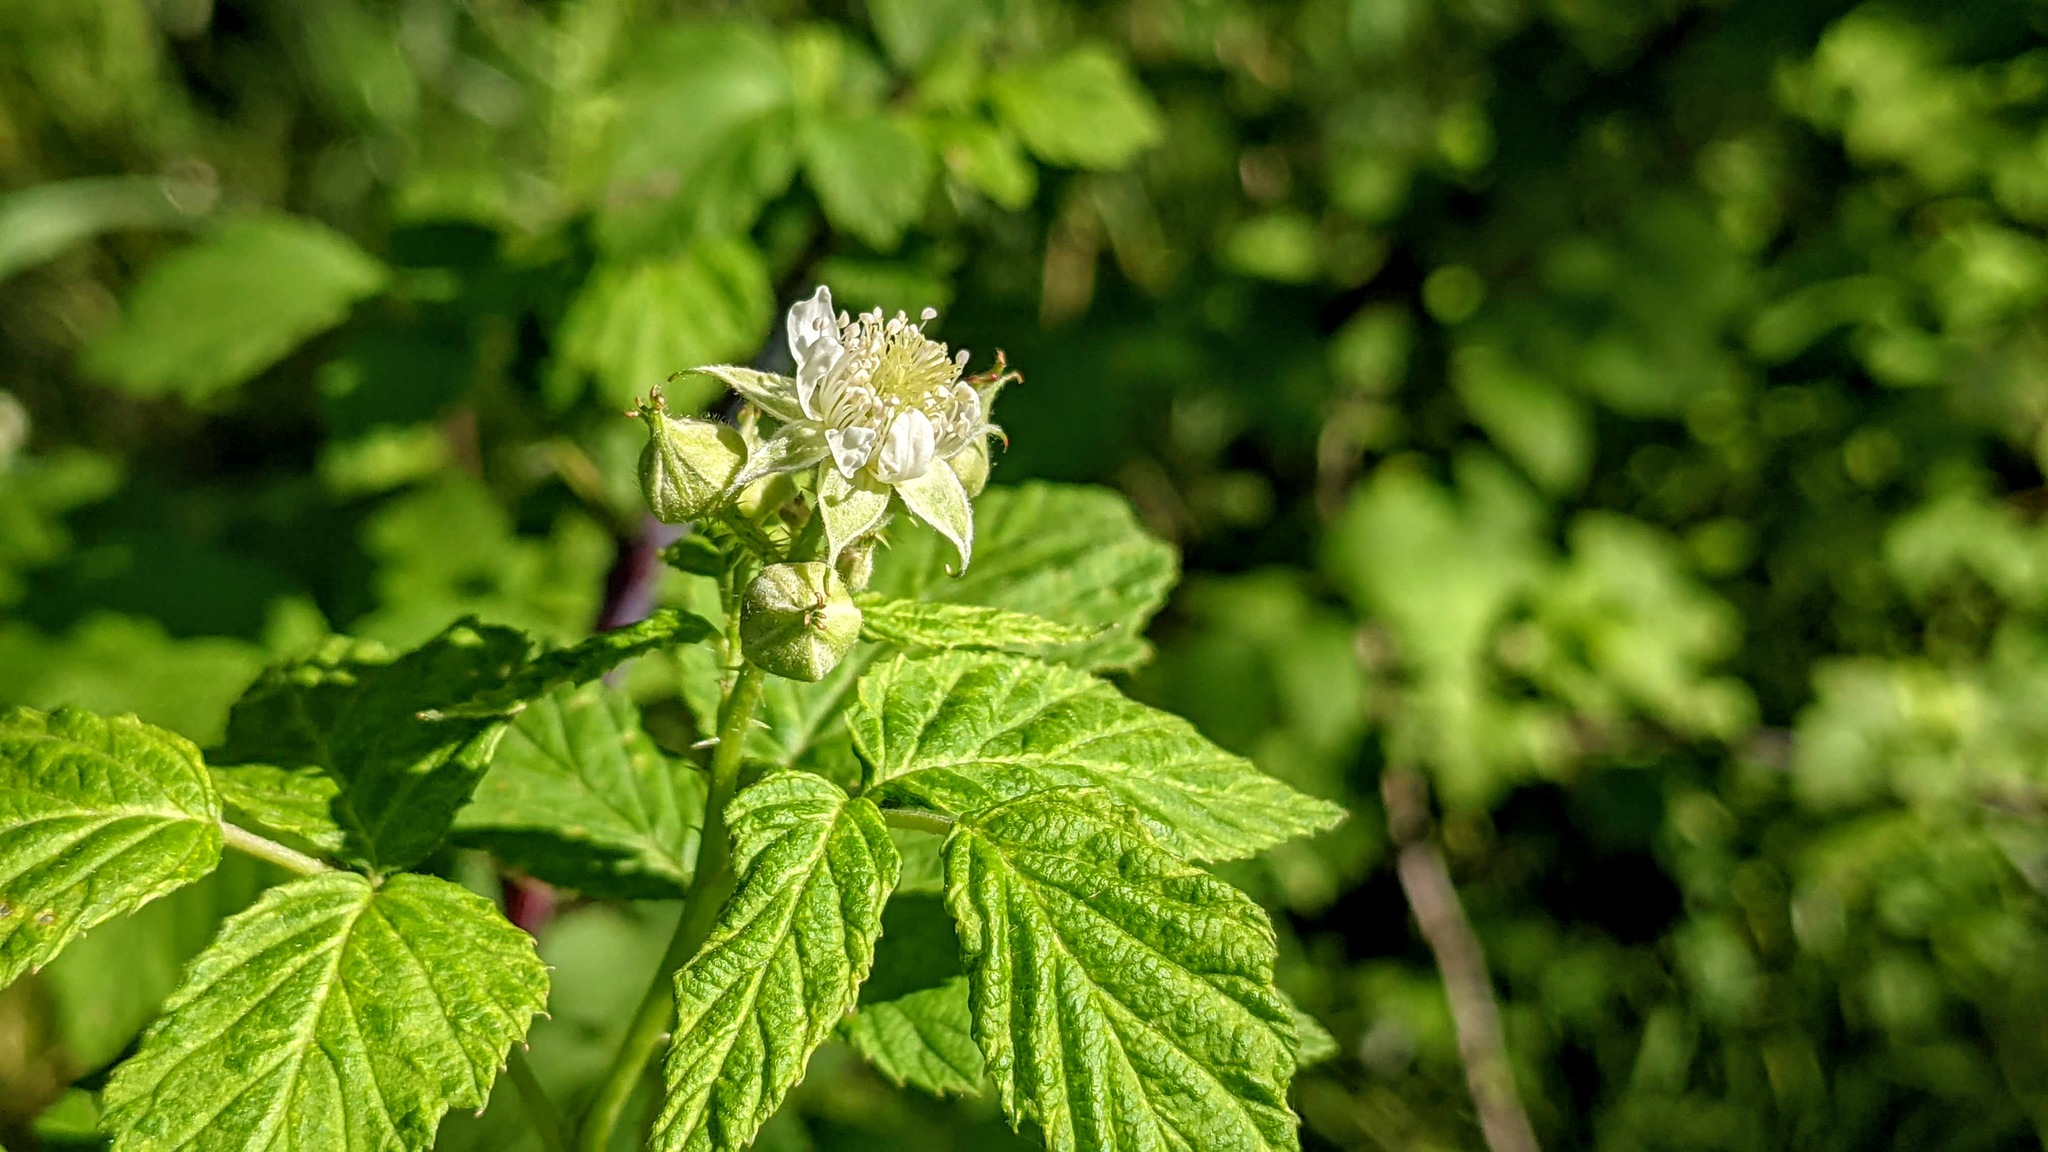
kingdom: Plantae
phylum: Tracheophyta
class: Magnoliopsida
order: Rosales
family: Rosaceae
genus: Rubus
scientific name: Rubus occidentalis
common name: Black raspberry
